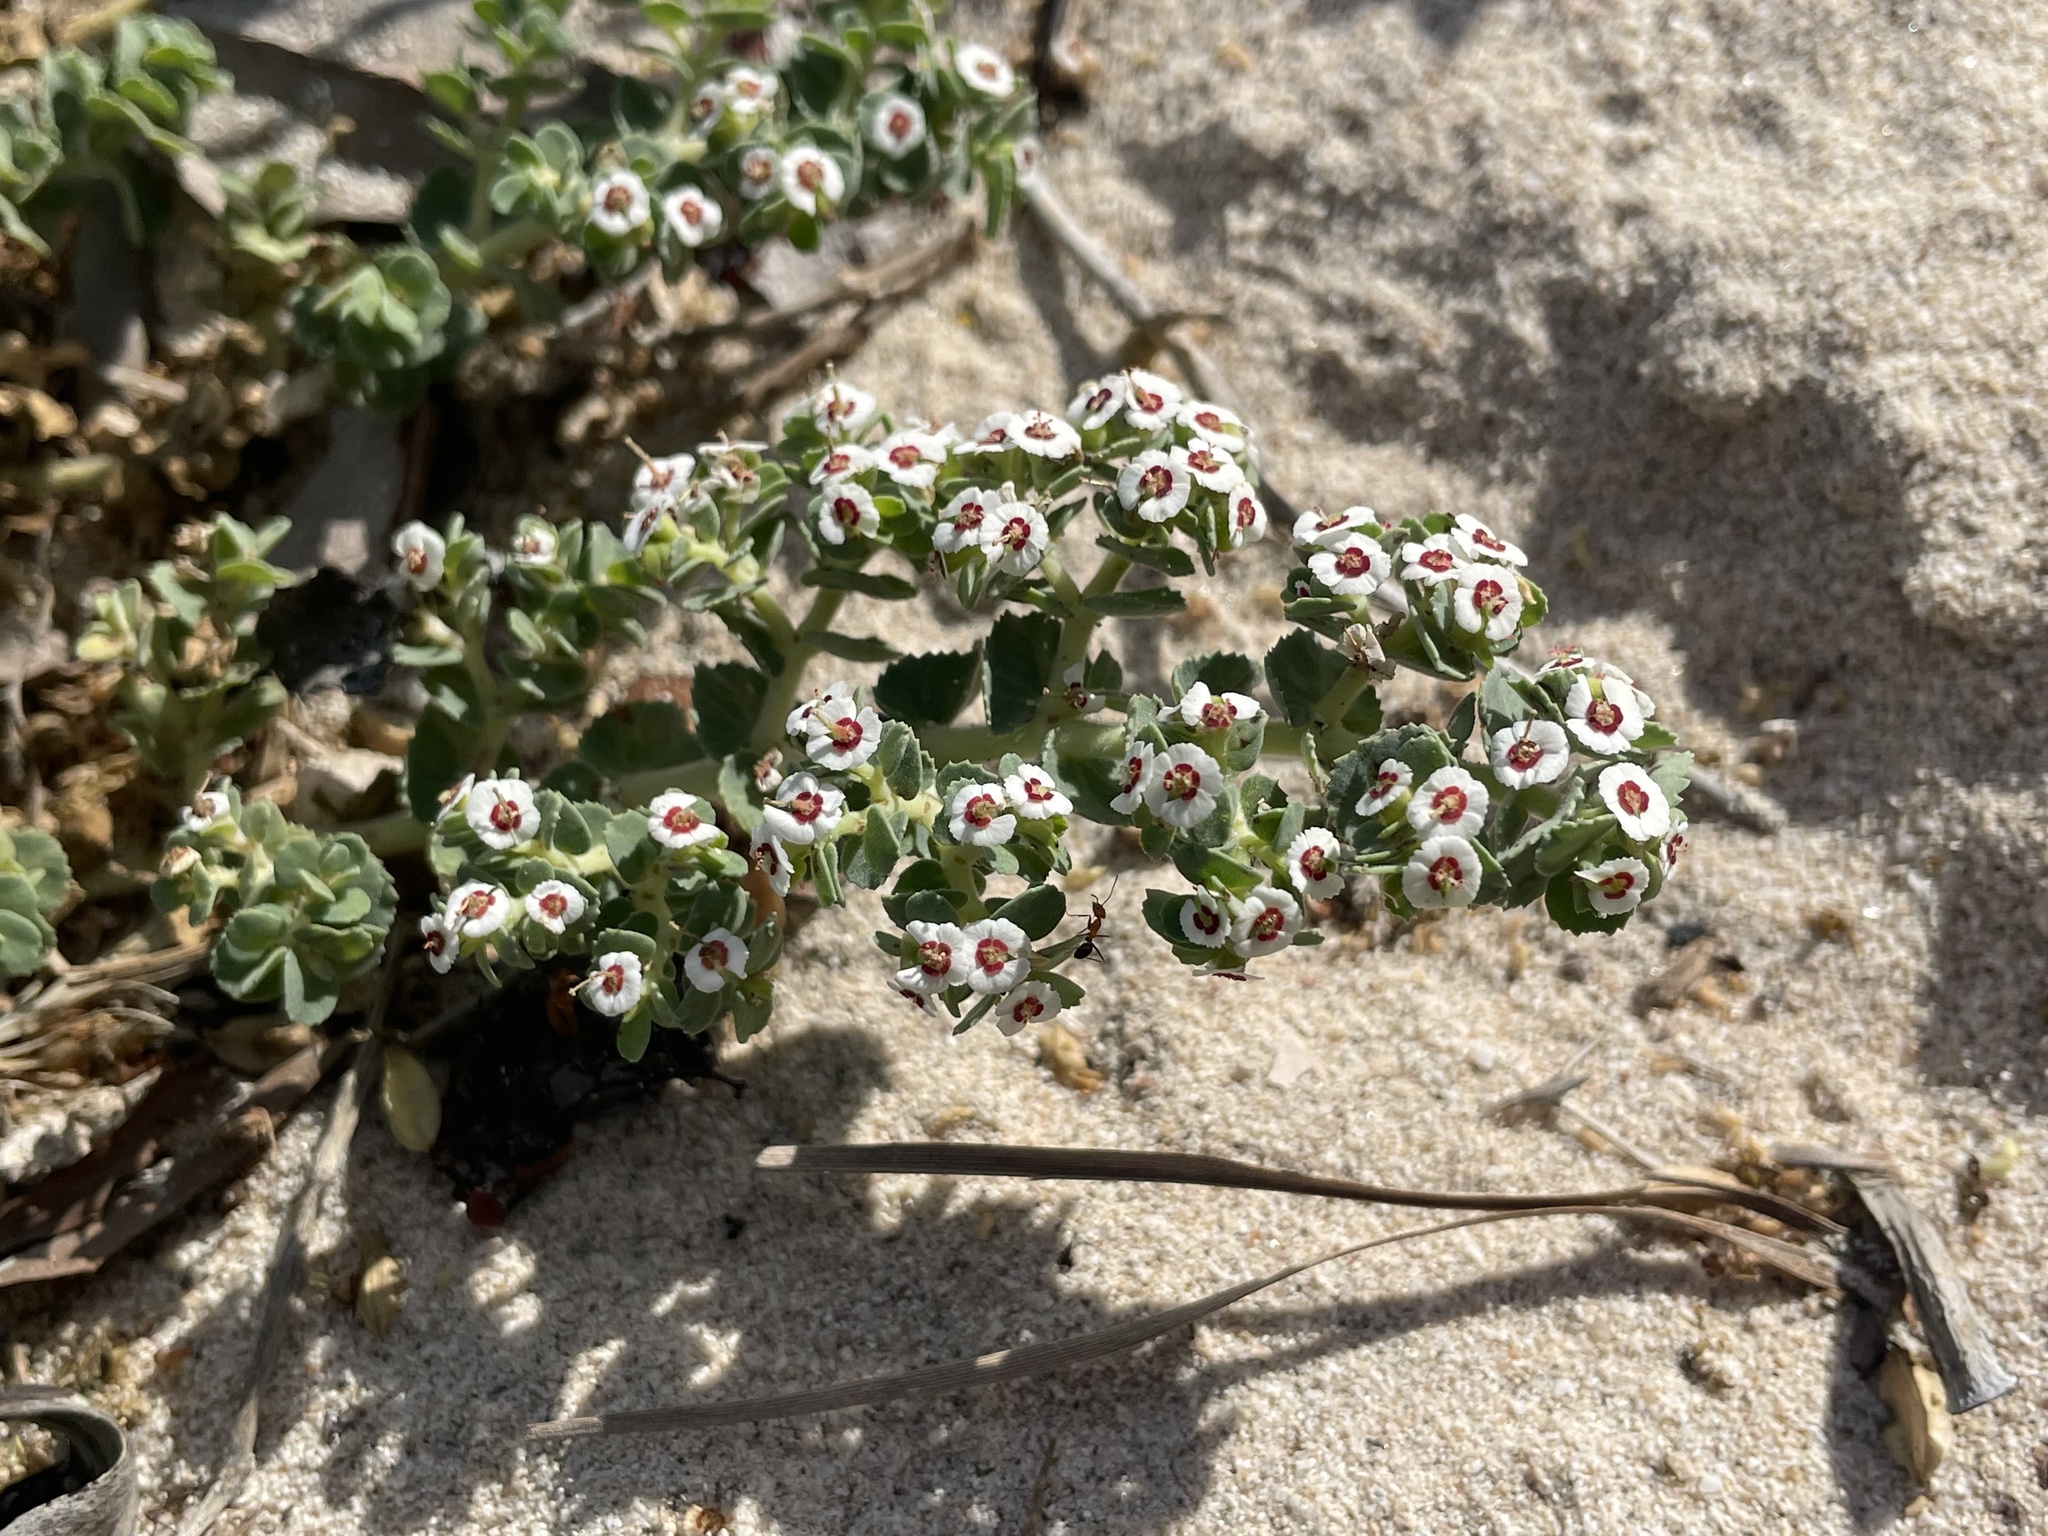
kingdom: Plantae
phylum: Tracheophyta
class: Magnoliopsida
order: Malpighiales
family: Euphorbiaceae
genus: Euphorbia
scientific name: Euphorbia leucophylla
